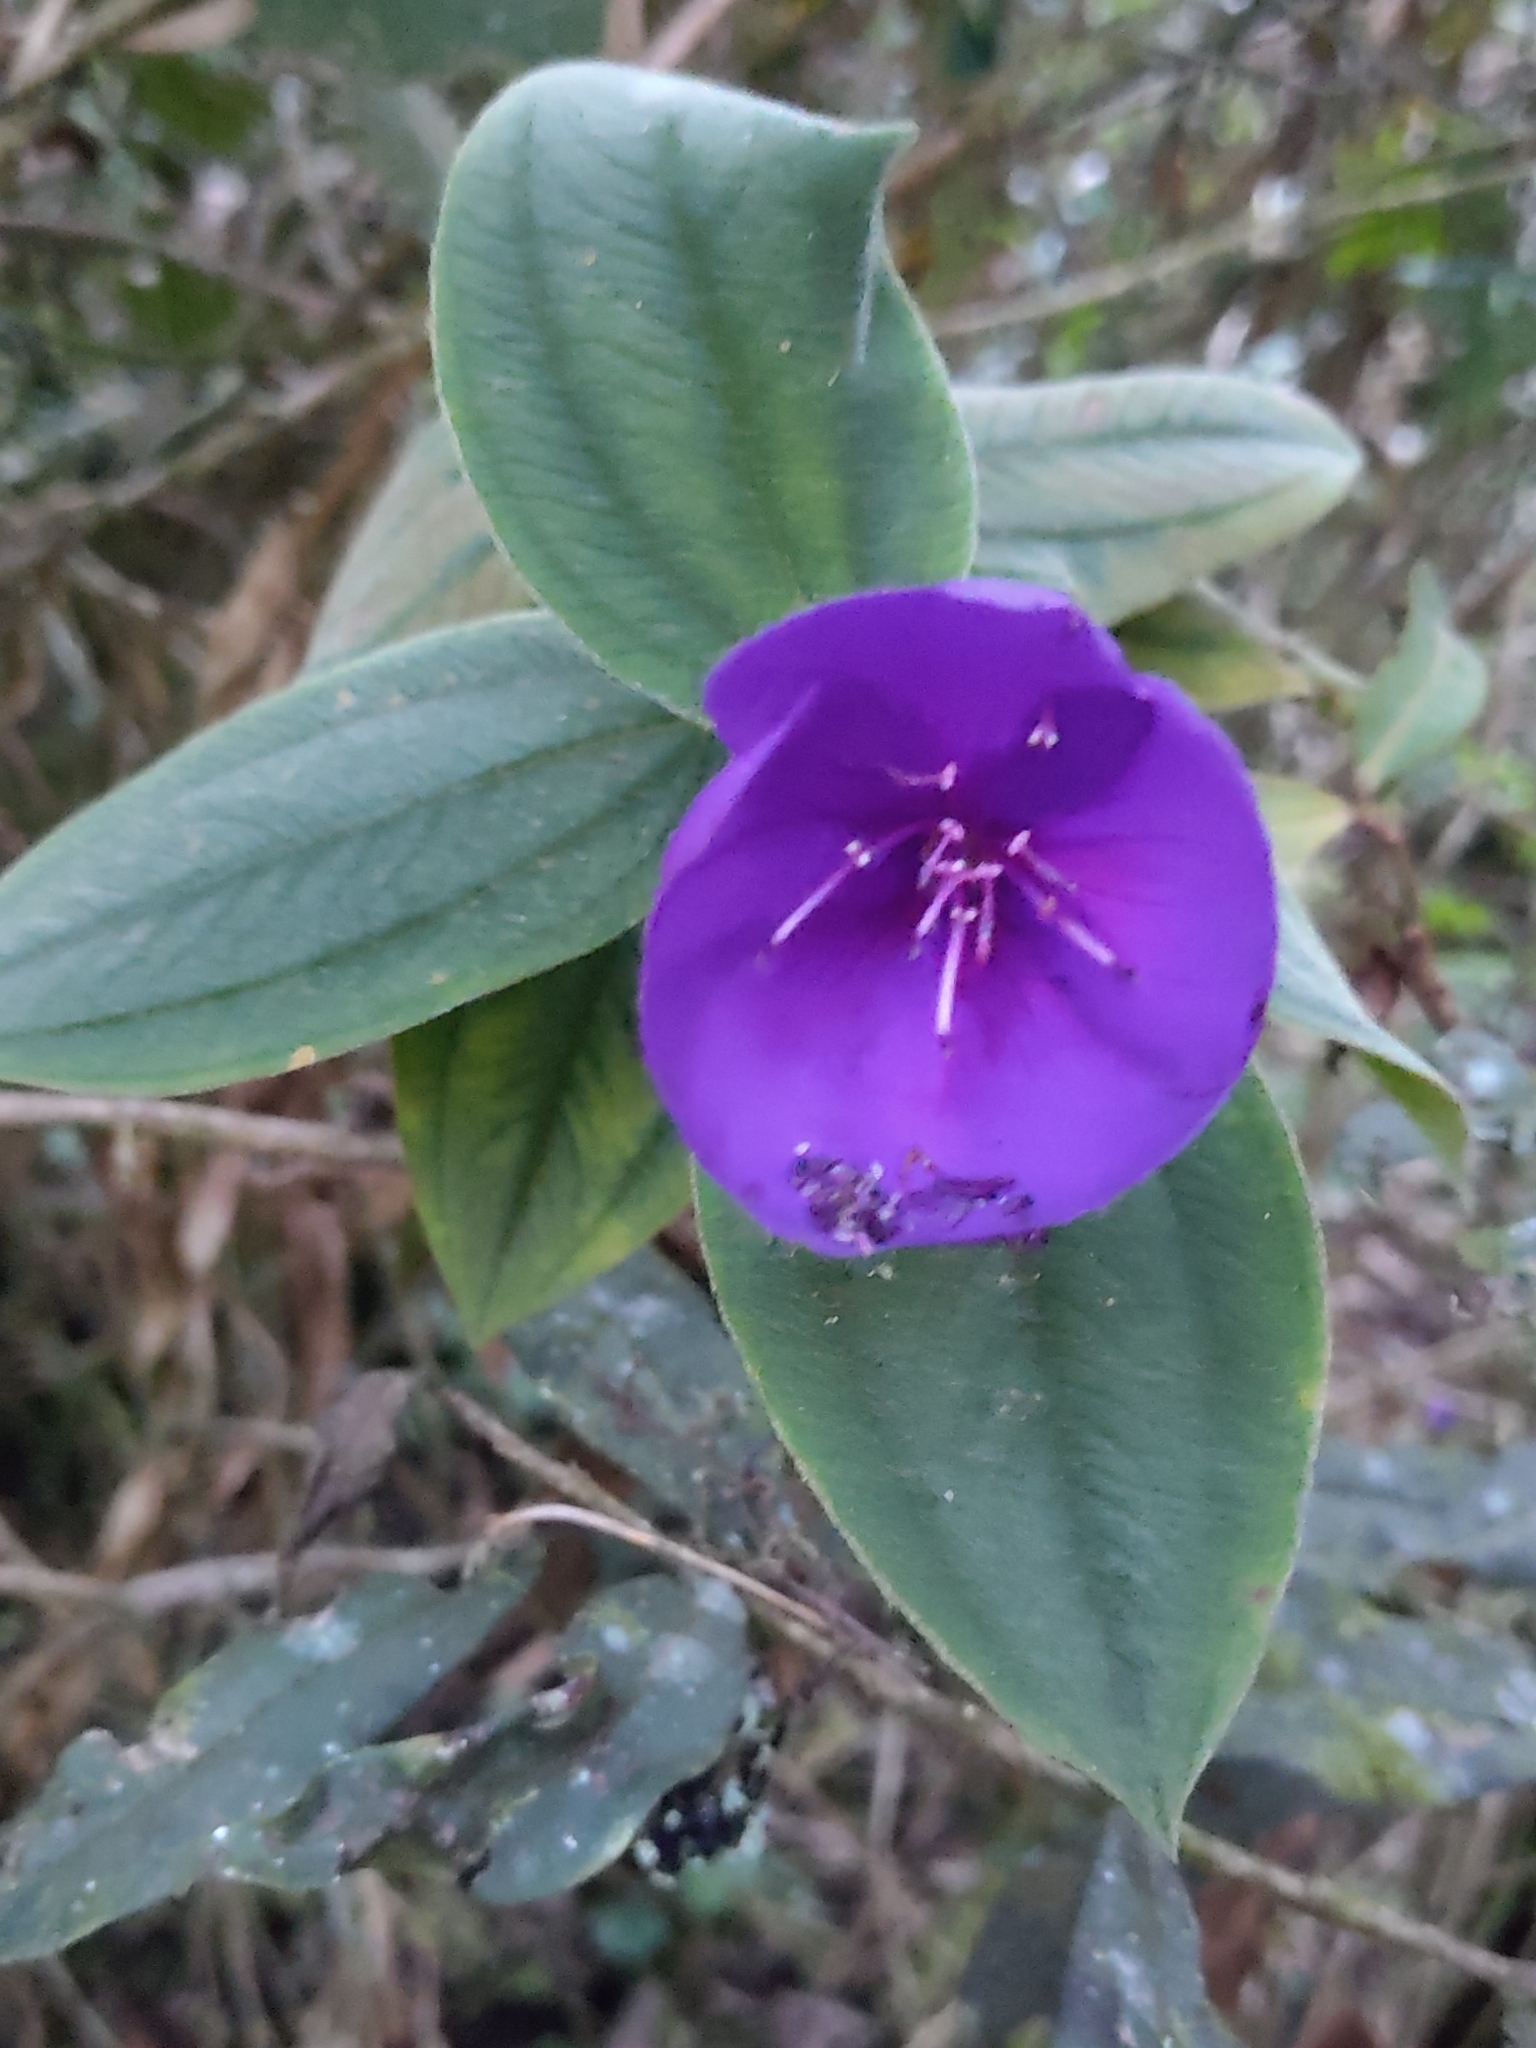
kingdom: Plantae
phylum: Tracheophyta
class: Magnoliopsida
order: Myrtales
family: Melastomataceae
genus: Pleroma
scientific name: Pleroma heteromallum
